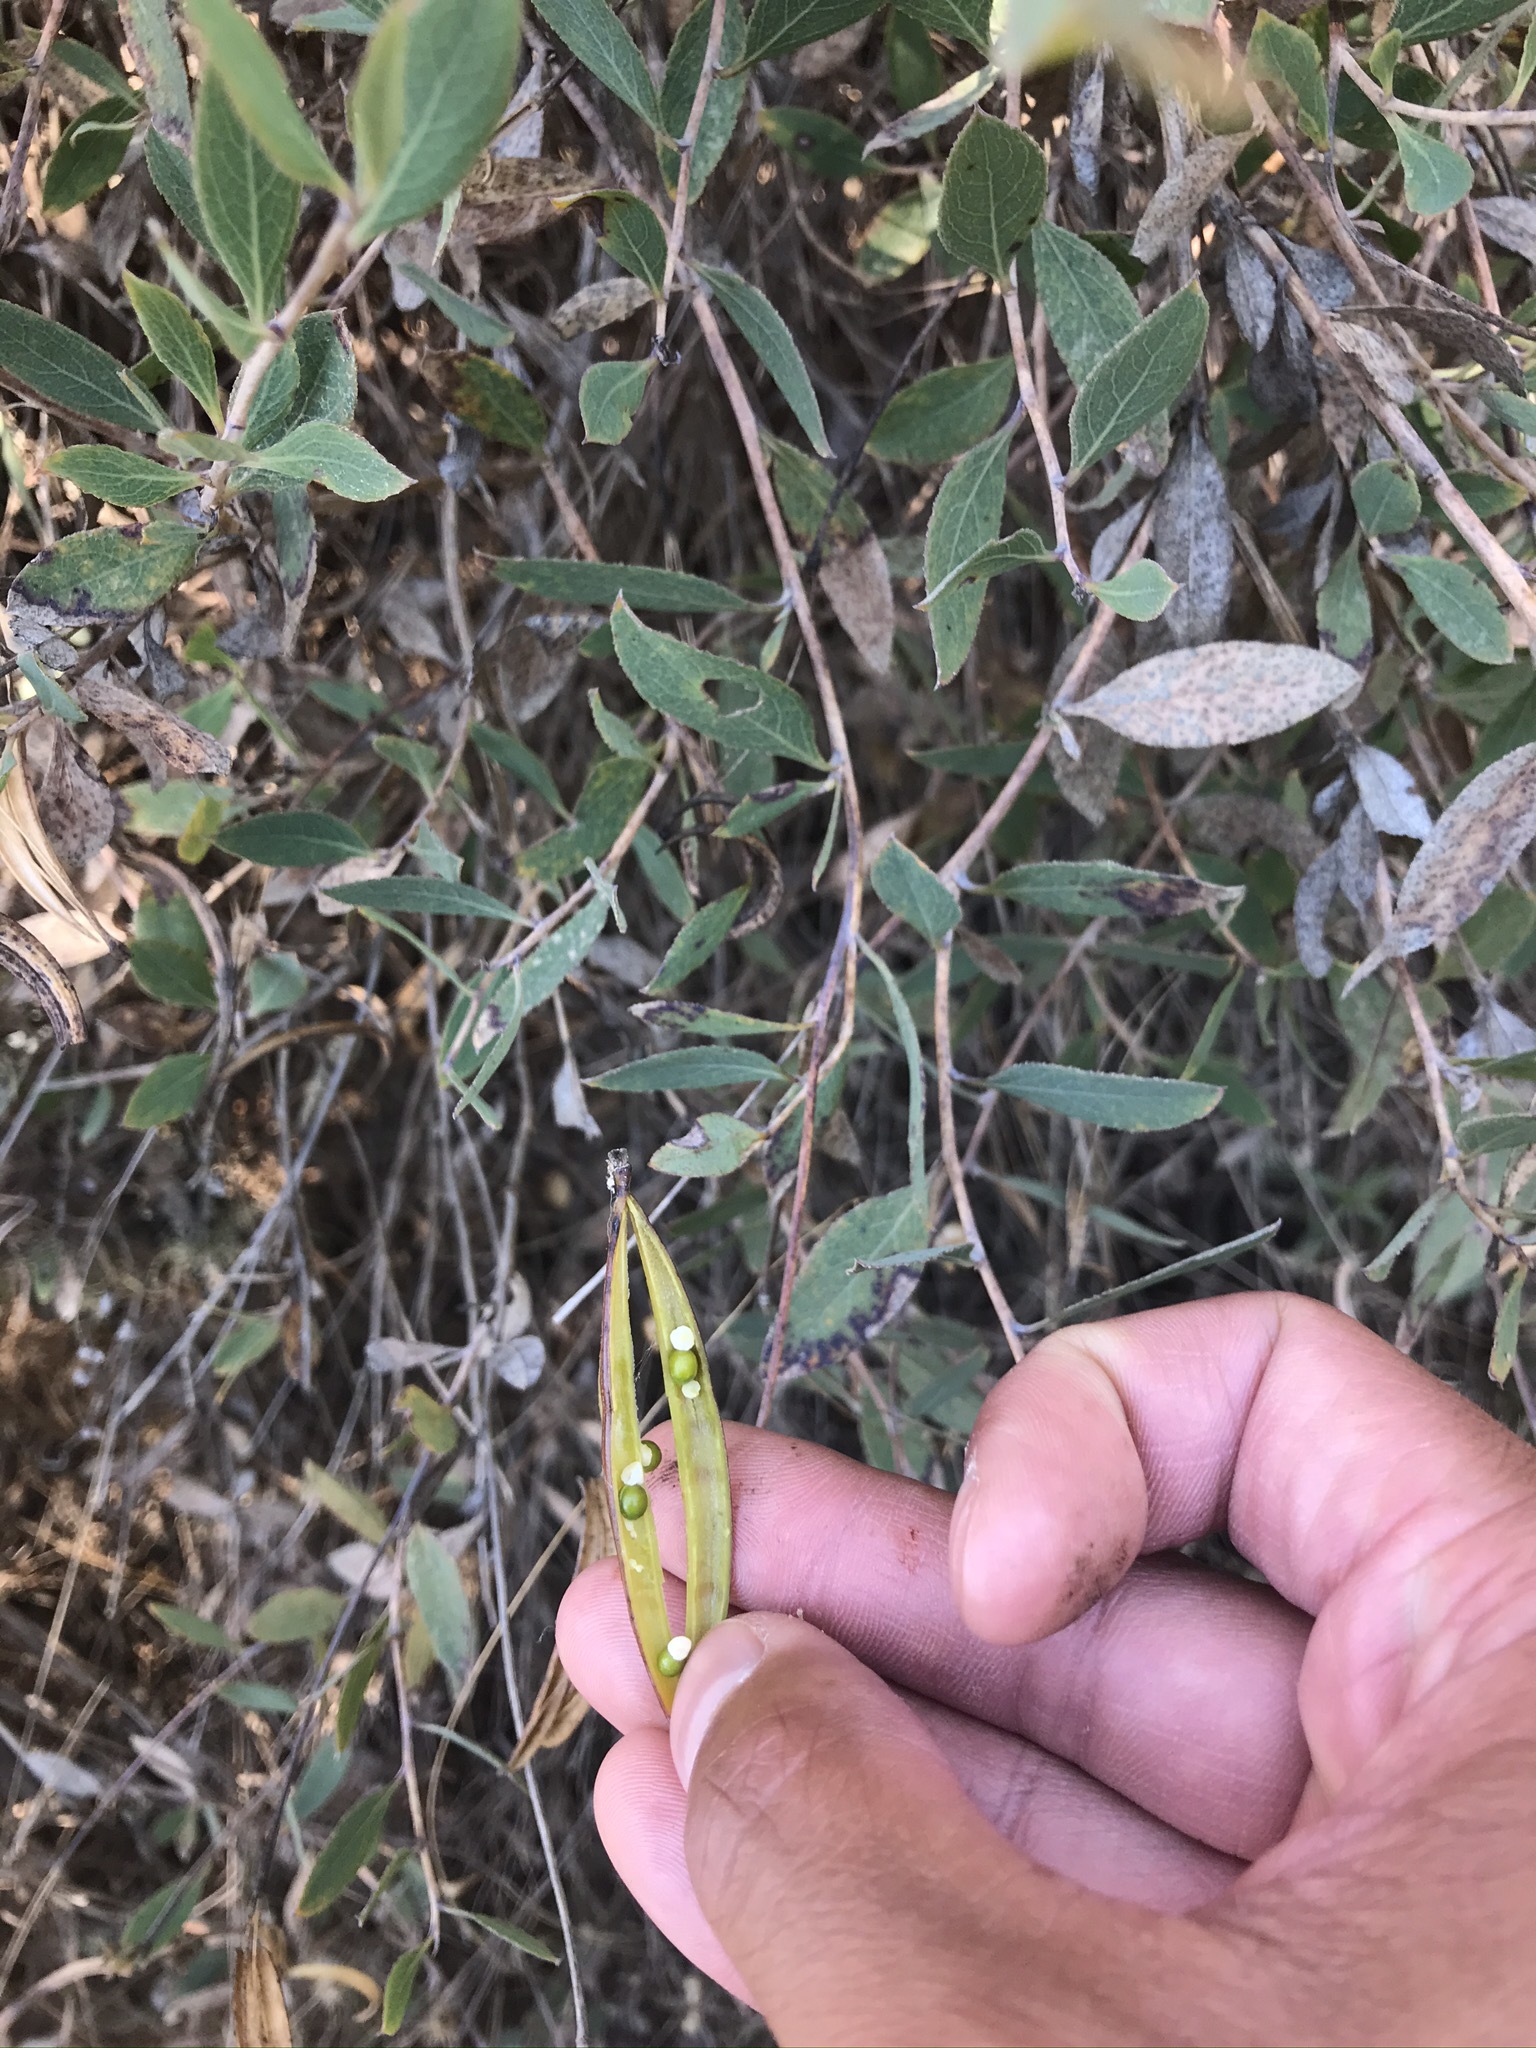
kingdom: Plantae
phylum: Tracheophyta
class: Magnoliopsida
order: Ranunculales
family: Papaveraceae
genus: Dendromecon
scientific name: Dendromecon rigida
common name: Tree poppy
